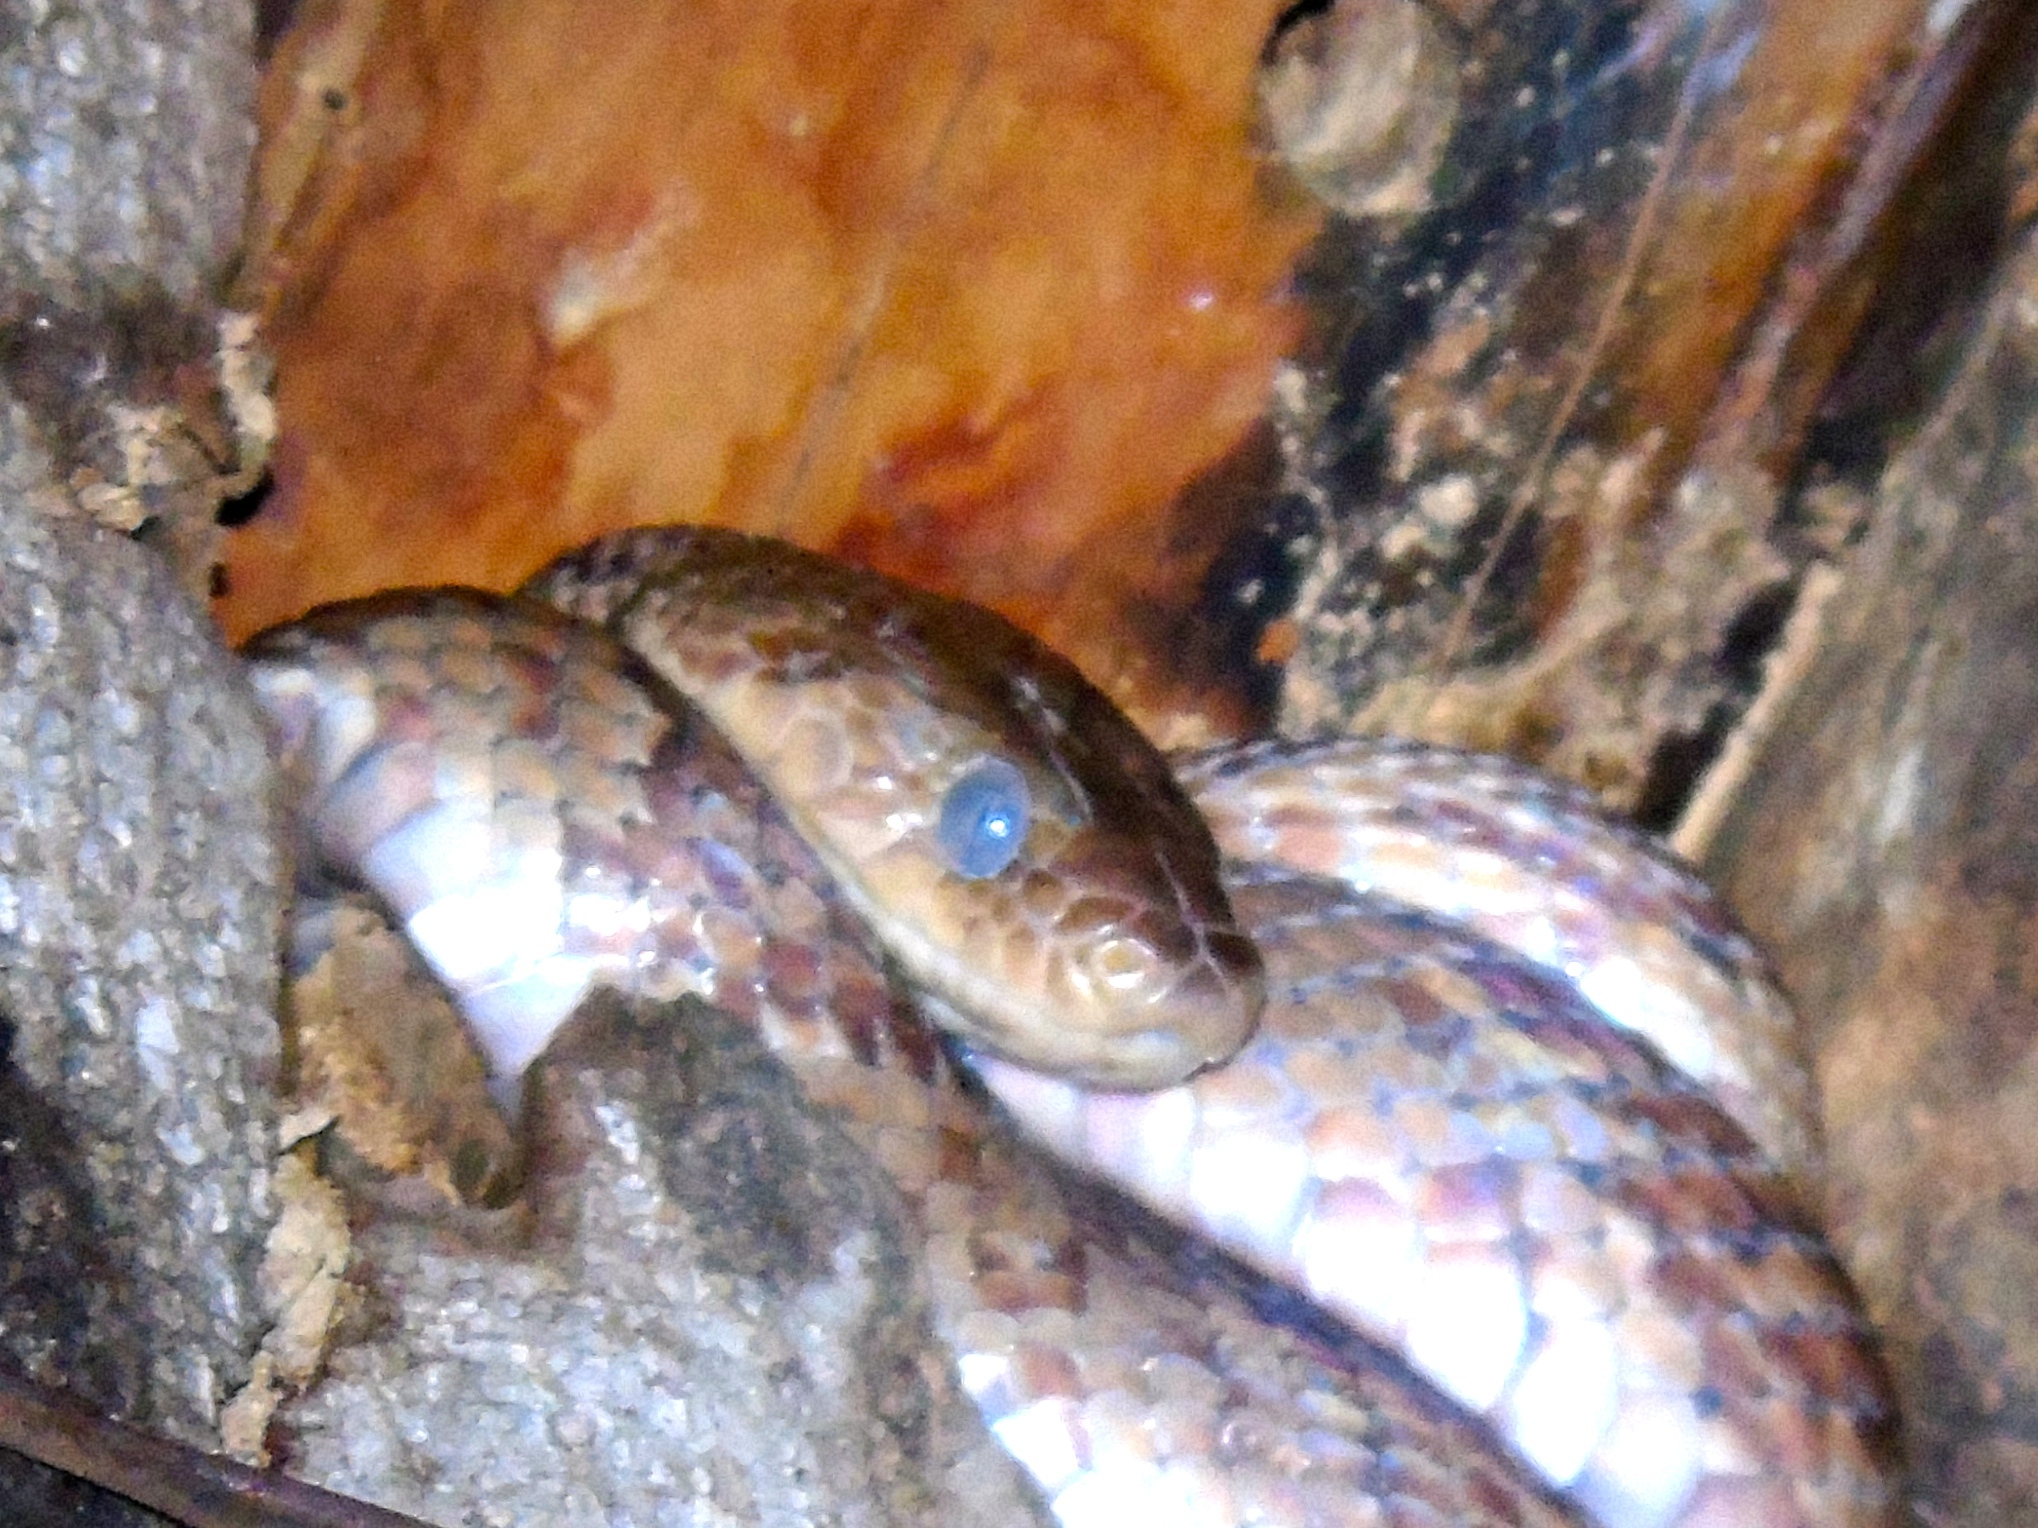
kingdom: Animalia
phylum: Chordata
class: Squamata
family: Colubridae
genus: Trimorphodon
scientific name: Trimorphodon paucimaculatus
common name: Sinaloan lyresnake
